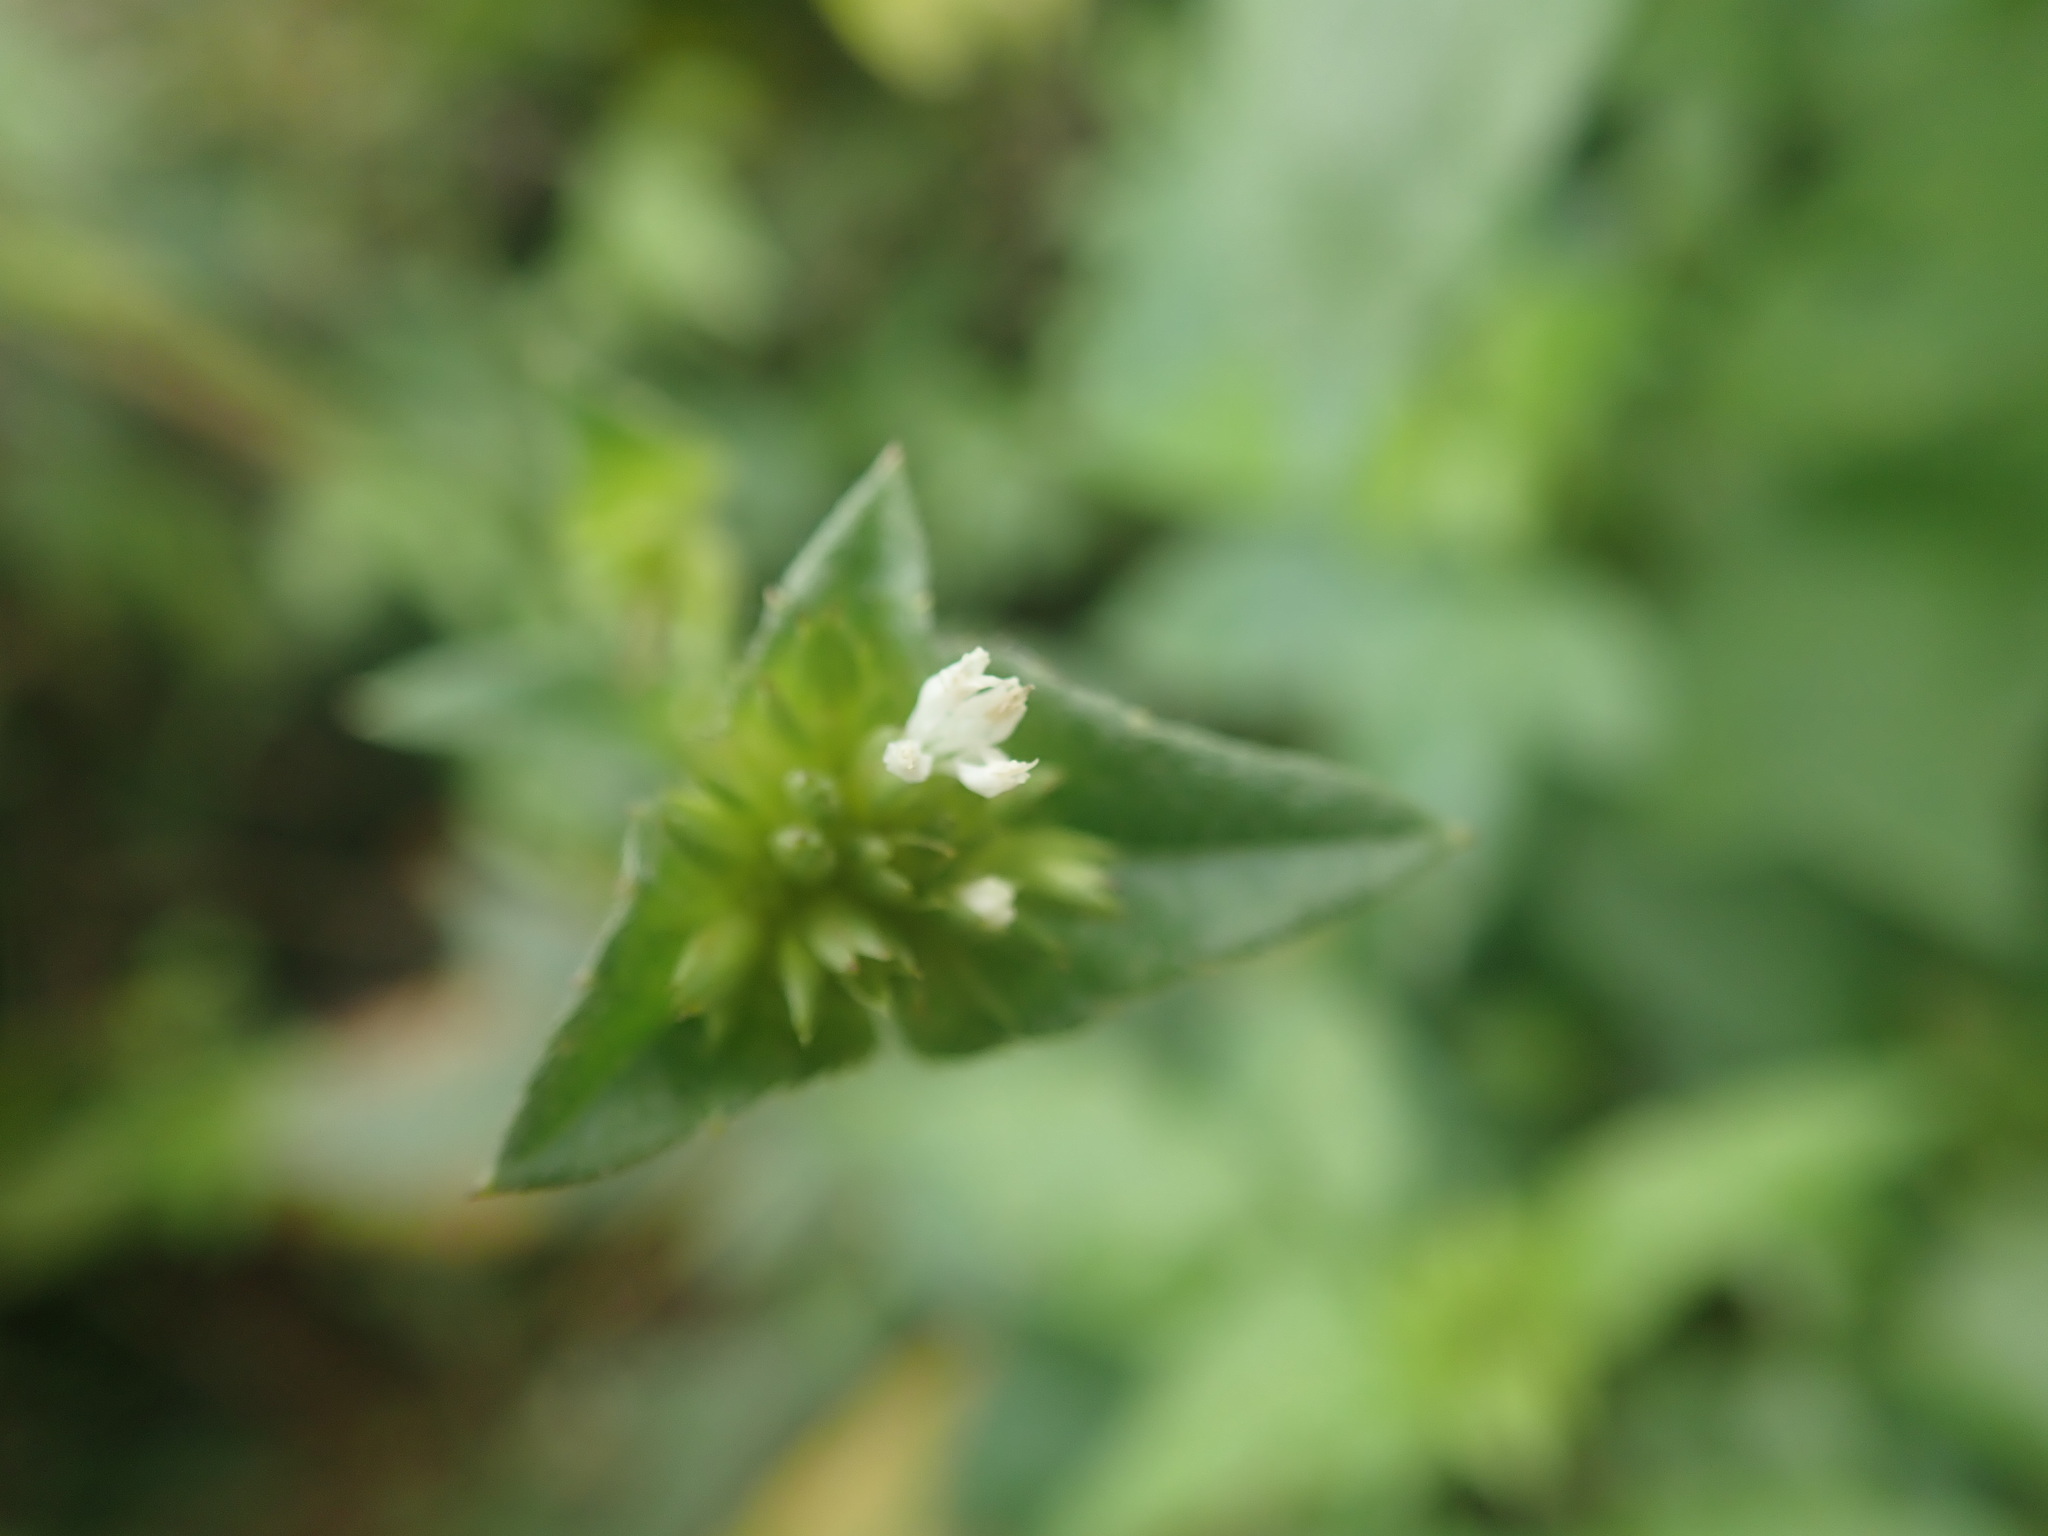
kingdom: Plantae
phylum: Tracheophyta
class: Magnoliopsida
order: Asterales
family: Asteraceae
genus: Elephantopus
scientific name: Elephantopus mollis
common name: Soft elephantsfoot
